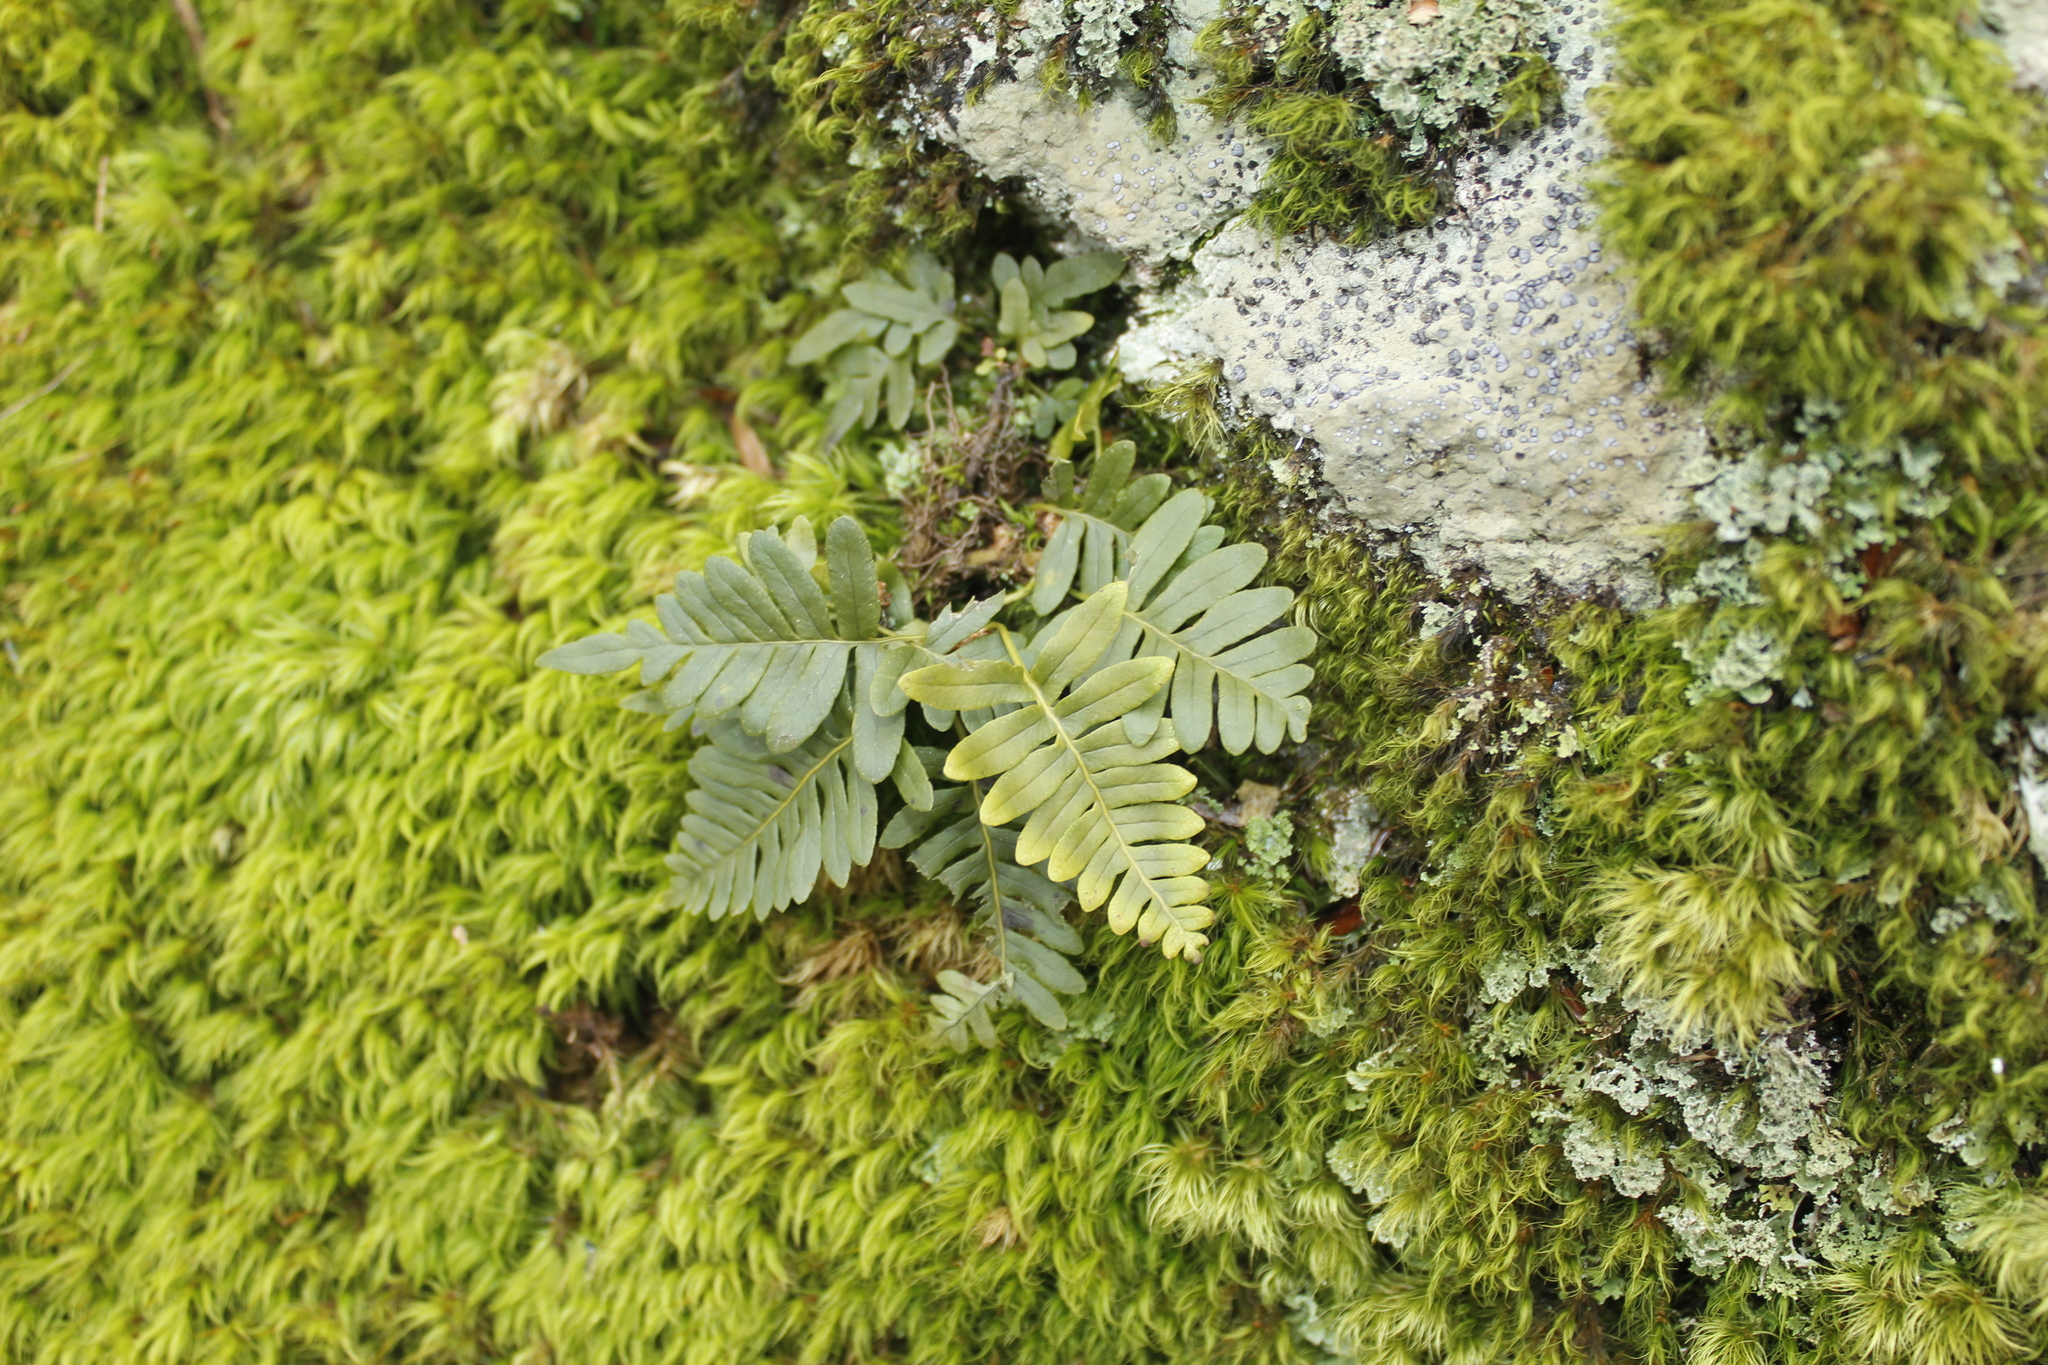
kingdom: Plantae
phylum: Tracheophyta
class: Polypodiopsida
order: Polypodiales
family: Polypodiaceae
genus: Polypodium
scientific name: Polypodium virginianum
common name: American wall fern
